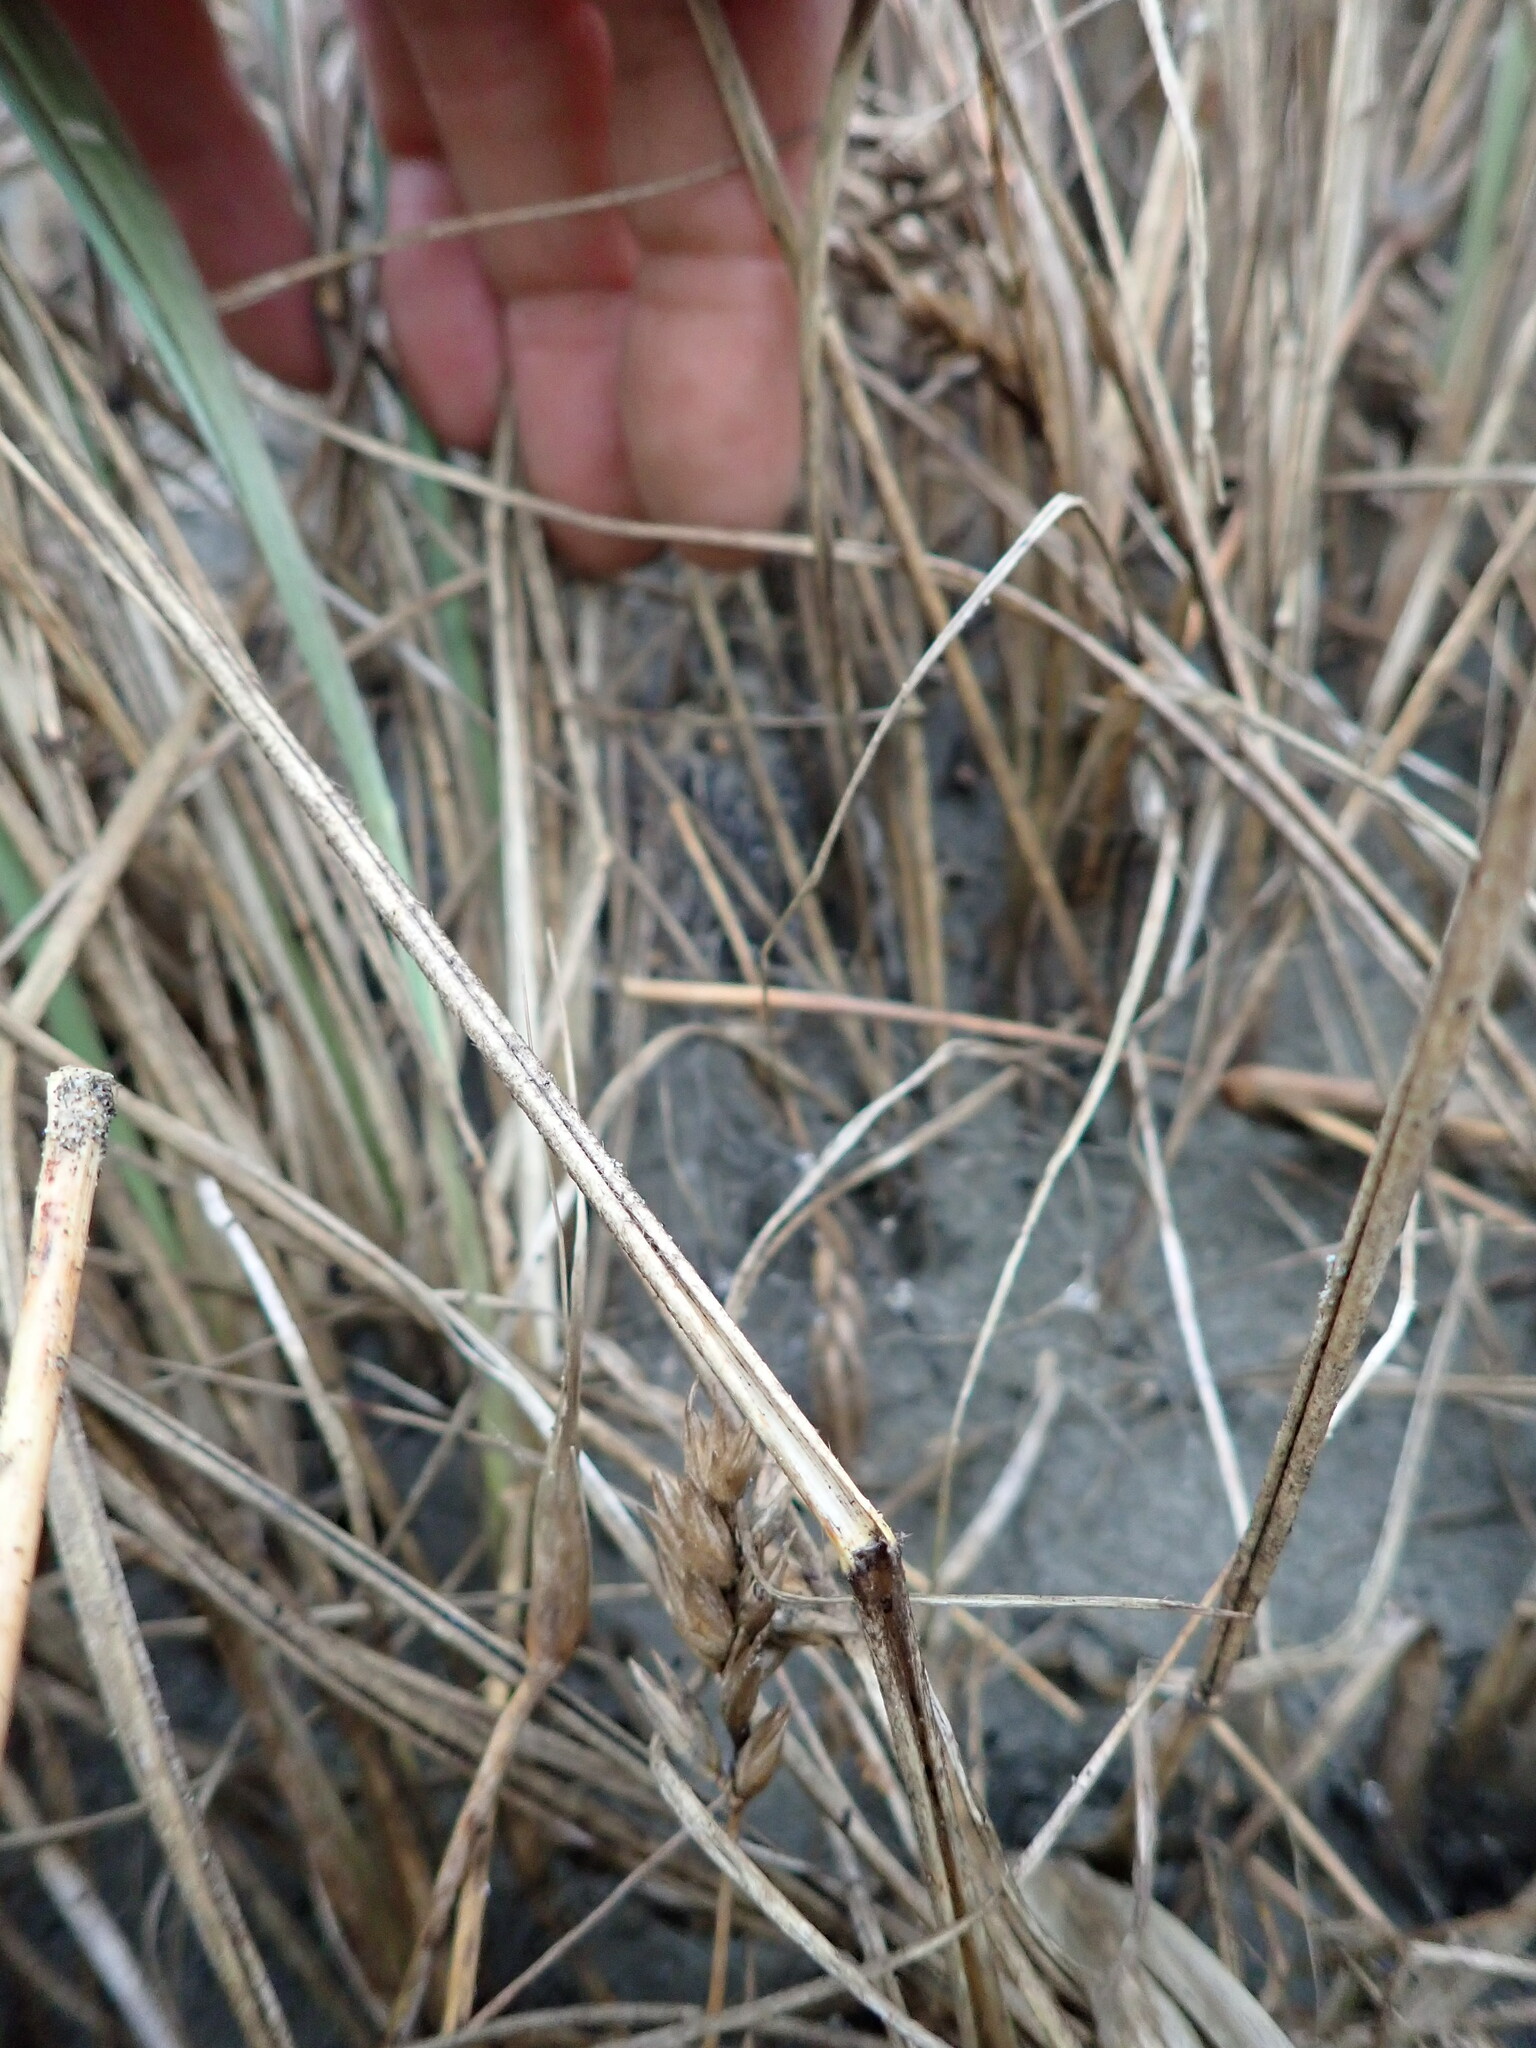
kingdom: Animalia
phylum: Arthropoda
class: Arachnida
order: Araneae
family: Theridiidae
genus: Latrodectus
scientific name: Latrodectus katipo
